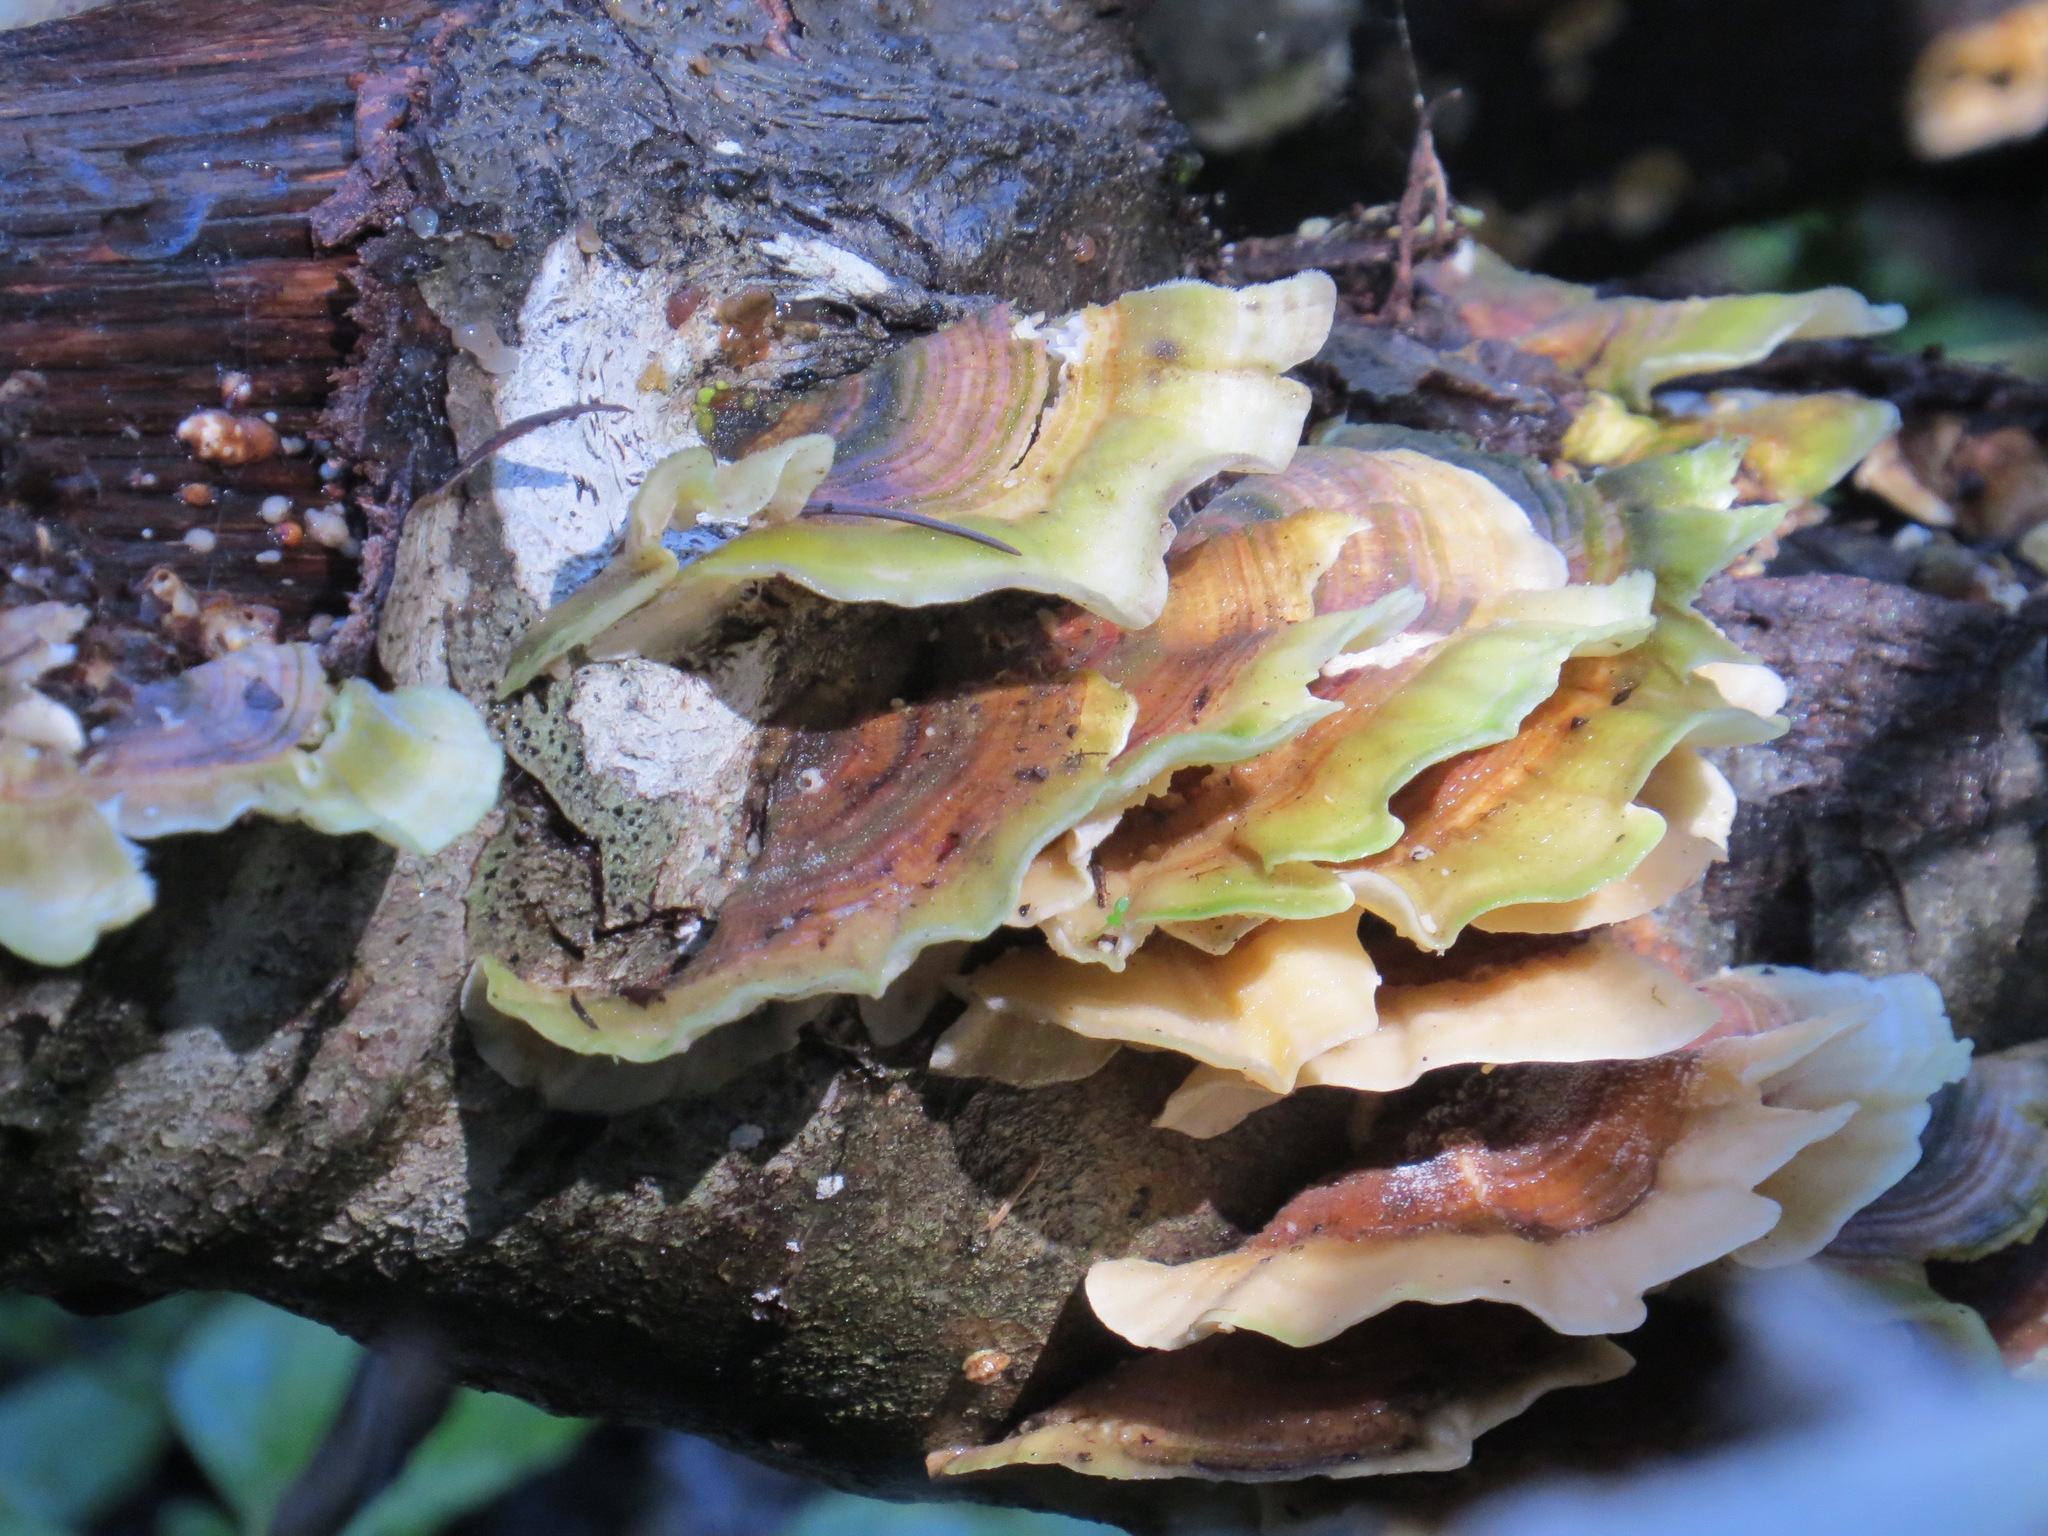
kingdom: Fungi
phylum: Basidiomycota
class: Agaricomycetes
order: Polyporales
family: Polyporaceae
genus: Trametes
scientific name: Trametes versicolor
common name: Turkeytail
